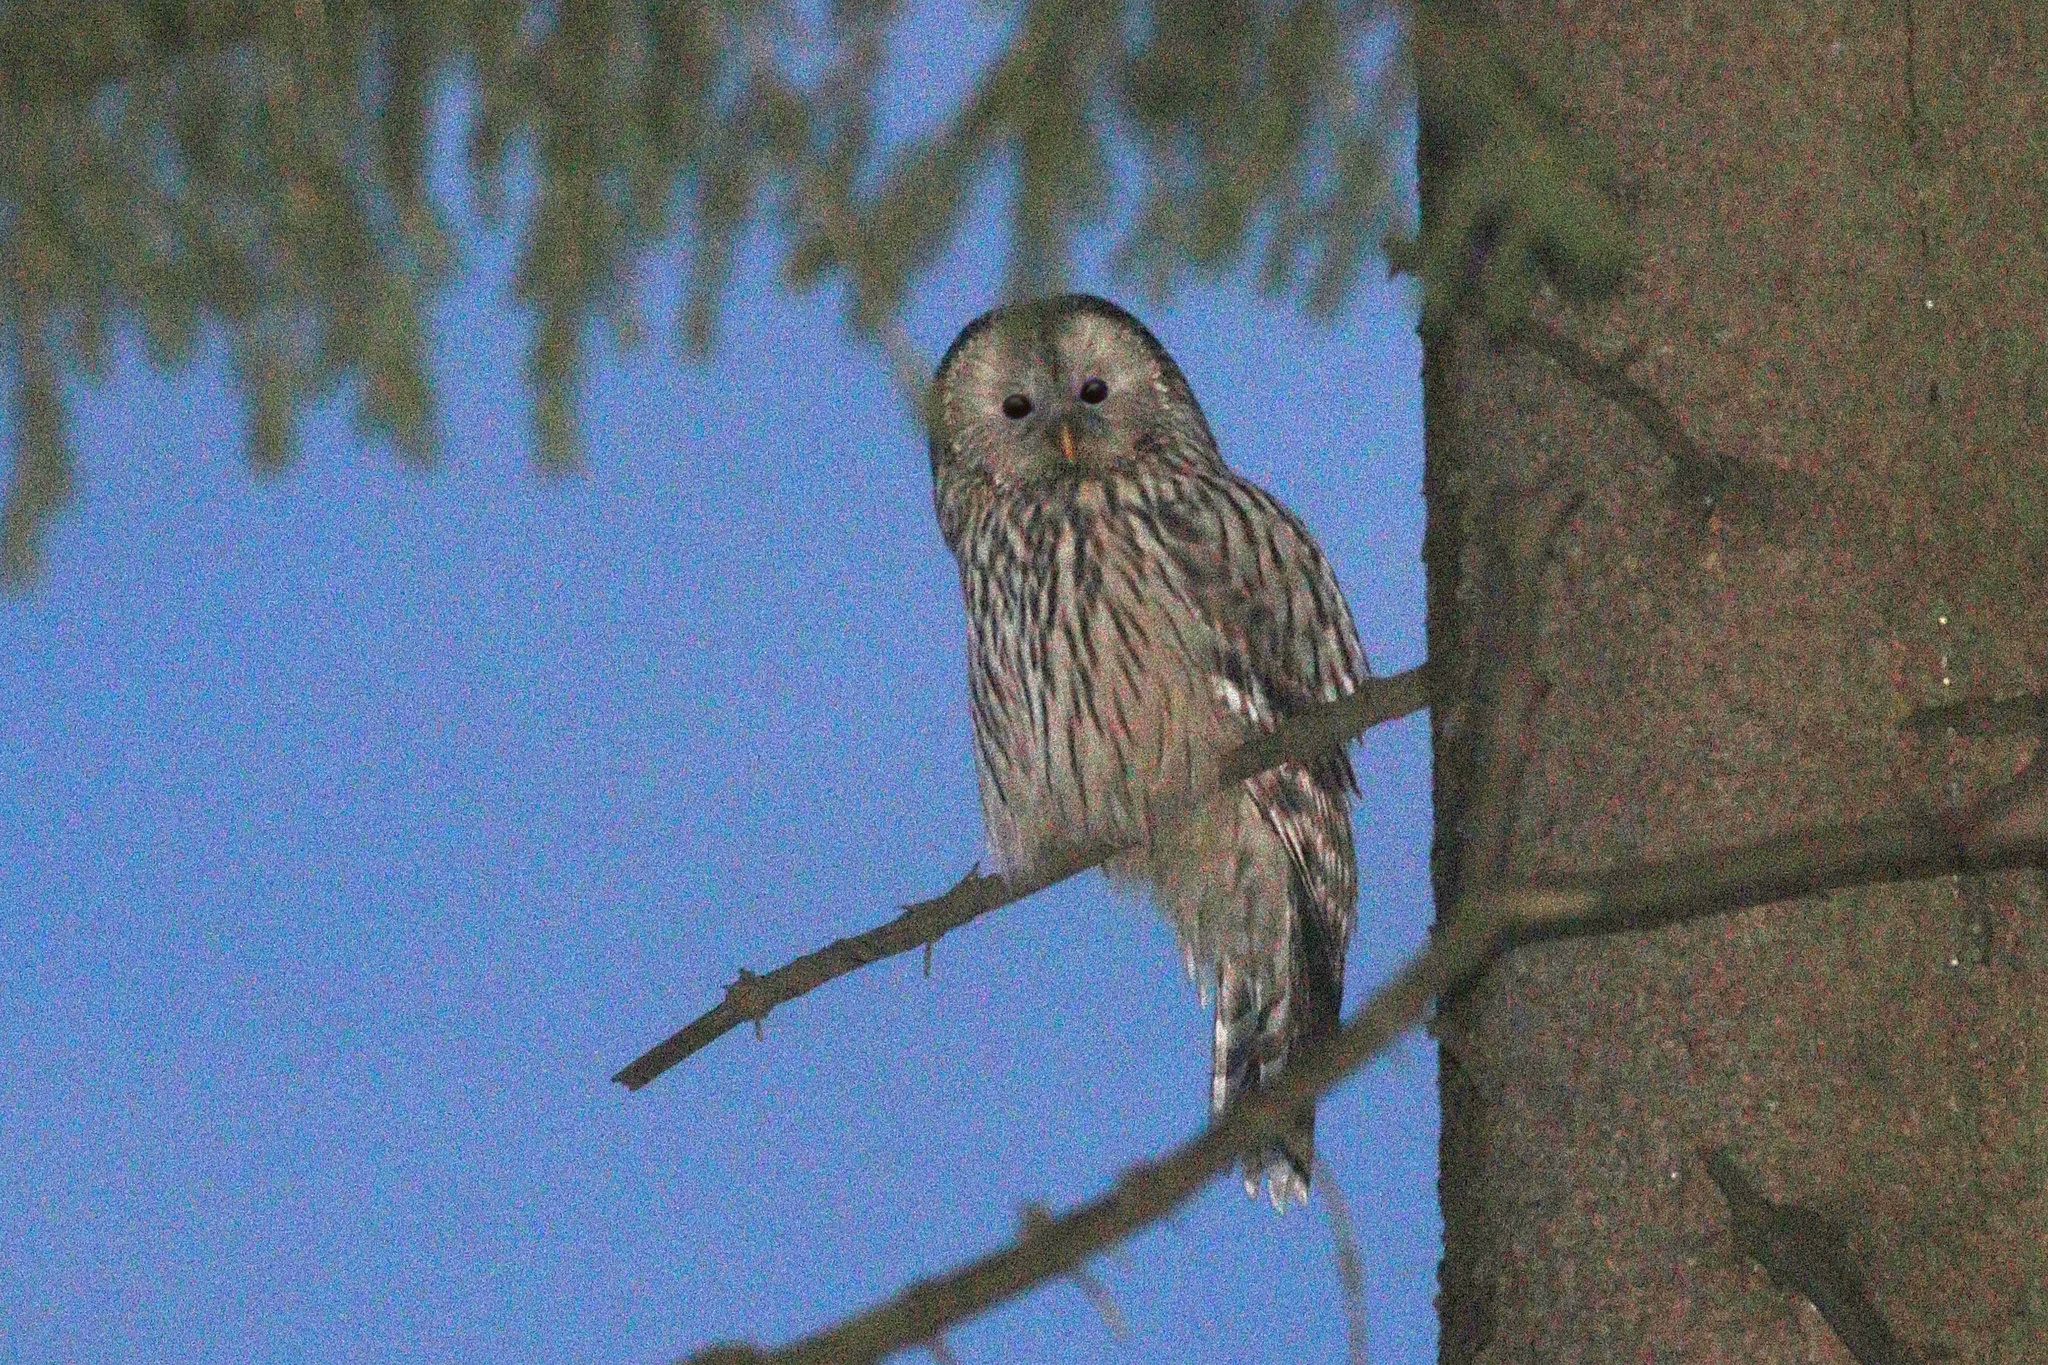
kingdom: Animalia
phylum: Chordata
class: Aves
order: Strigiformes
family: Strigidae
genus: Strix
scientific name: Strix uralensis
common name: Ural owl
